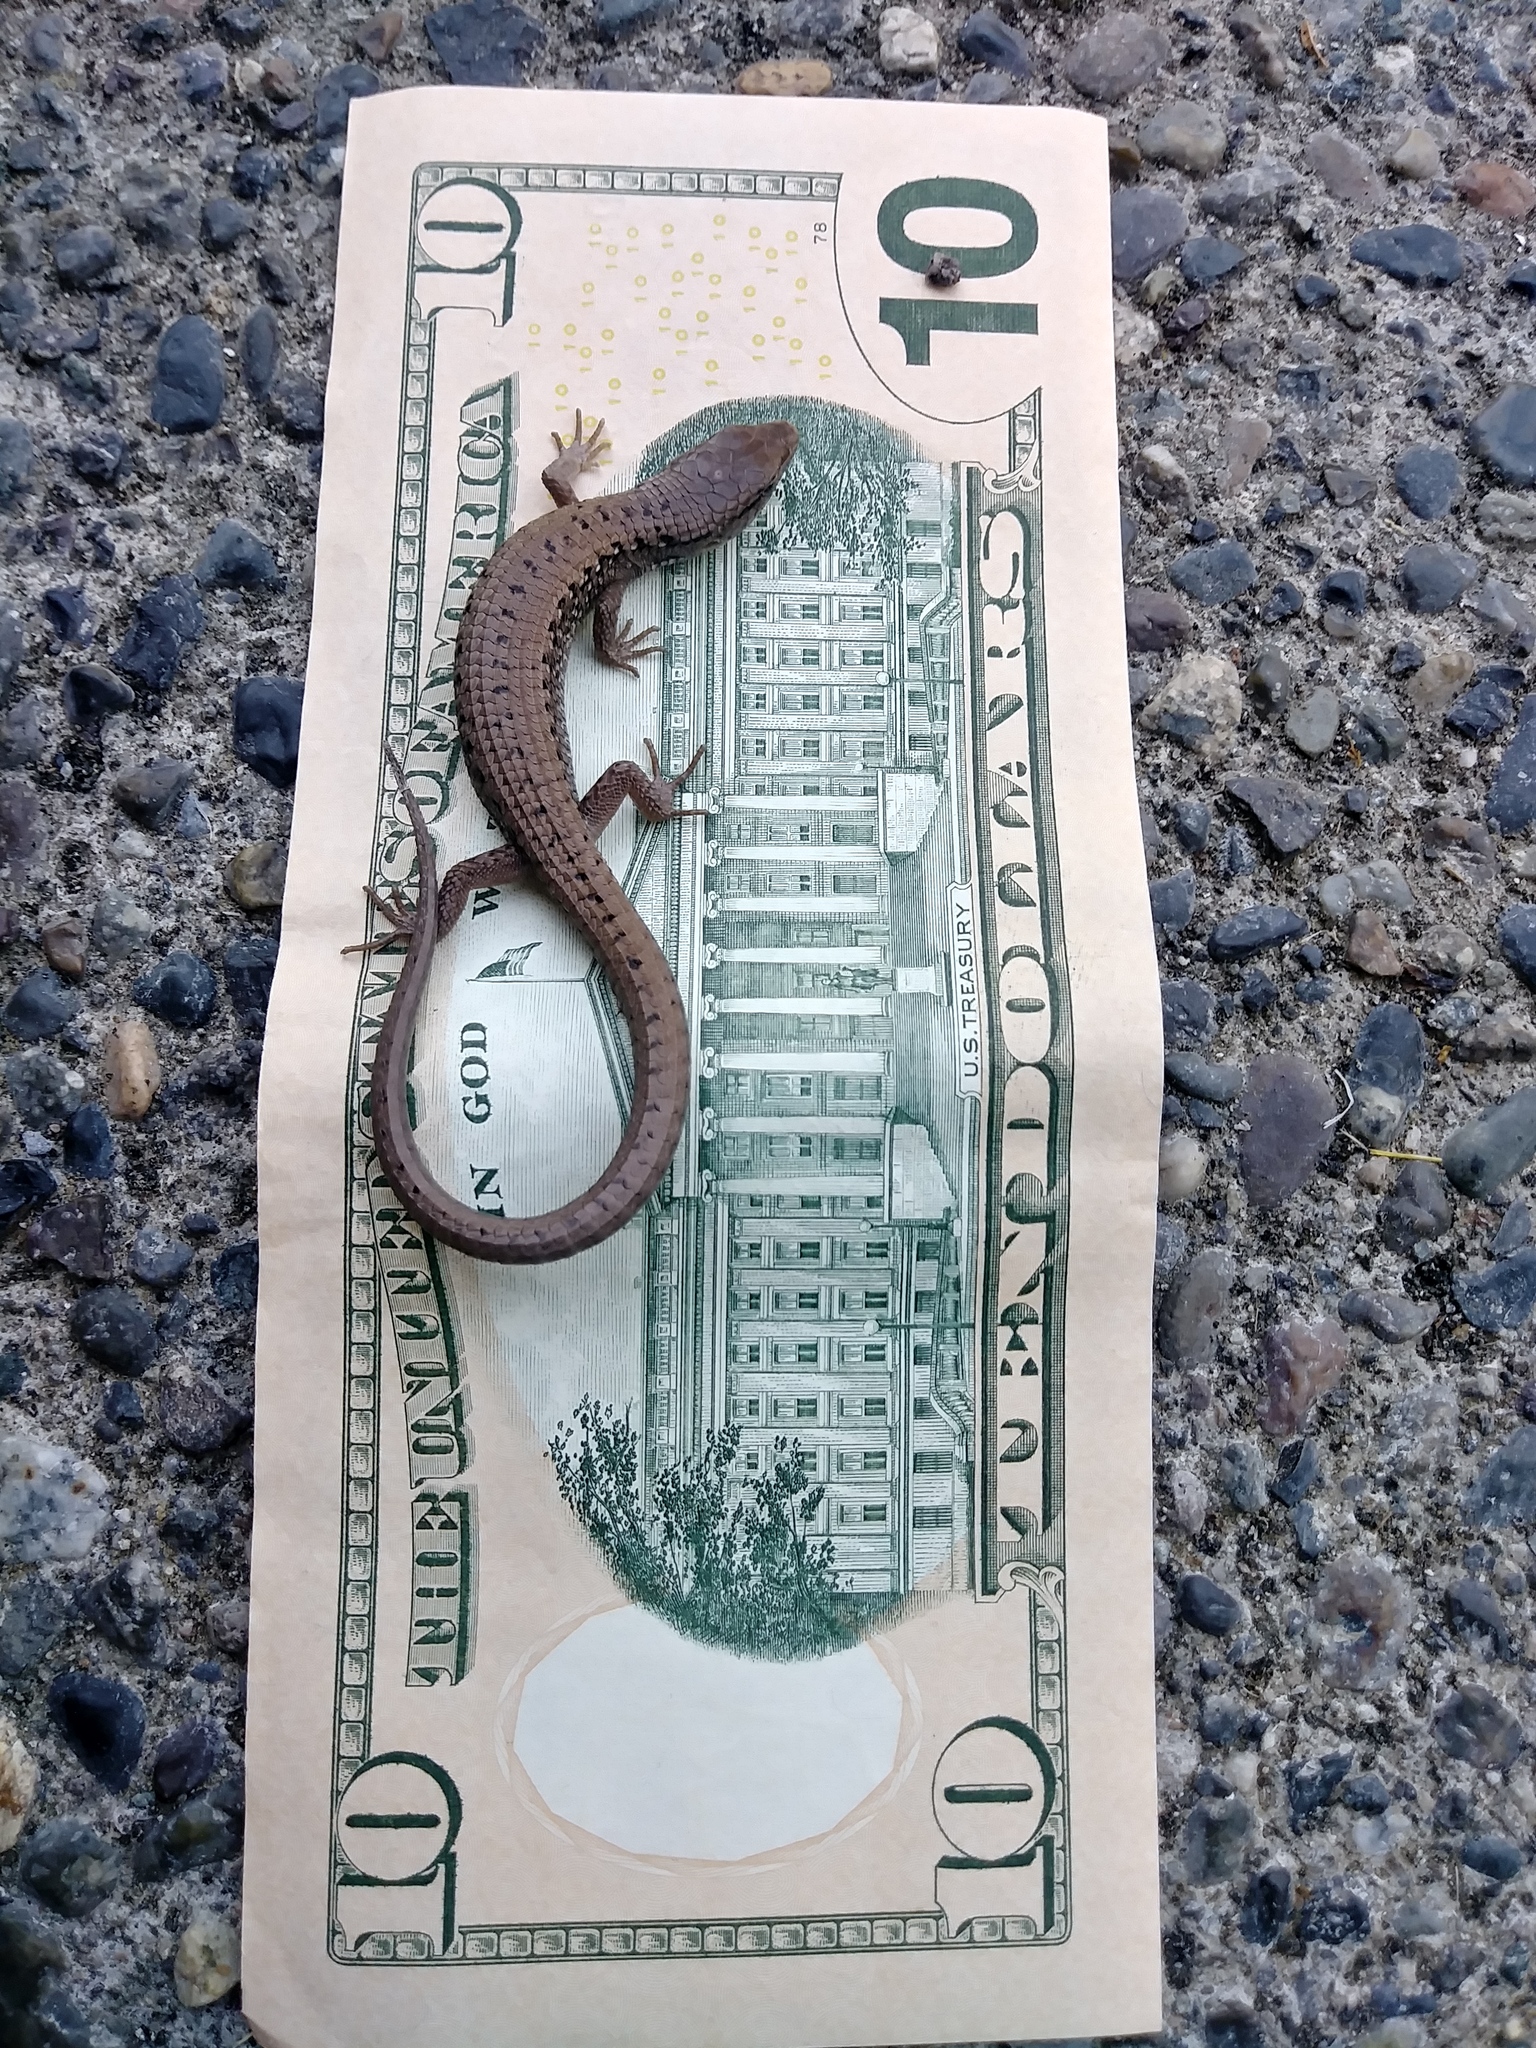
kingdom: Animalia
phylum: Chordata
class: Squamata
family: Anguidae
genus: Elgaria
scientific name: Elgaria coerulea
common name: Northern alligator lizard
